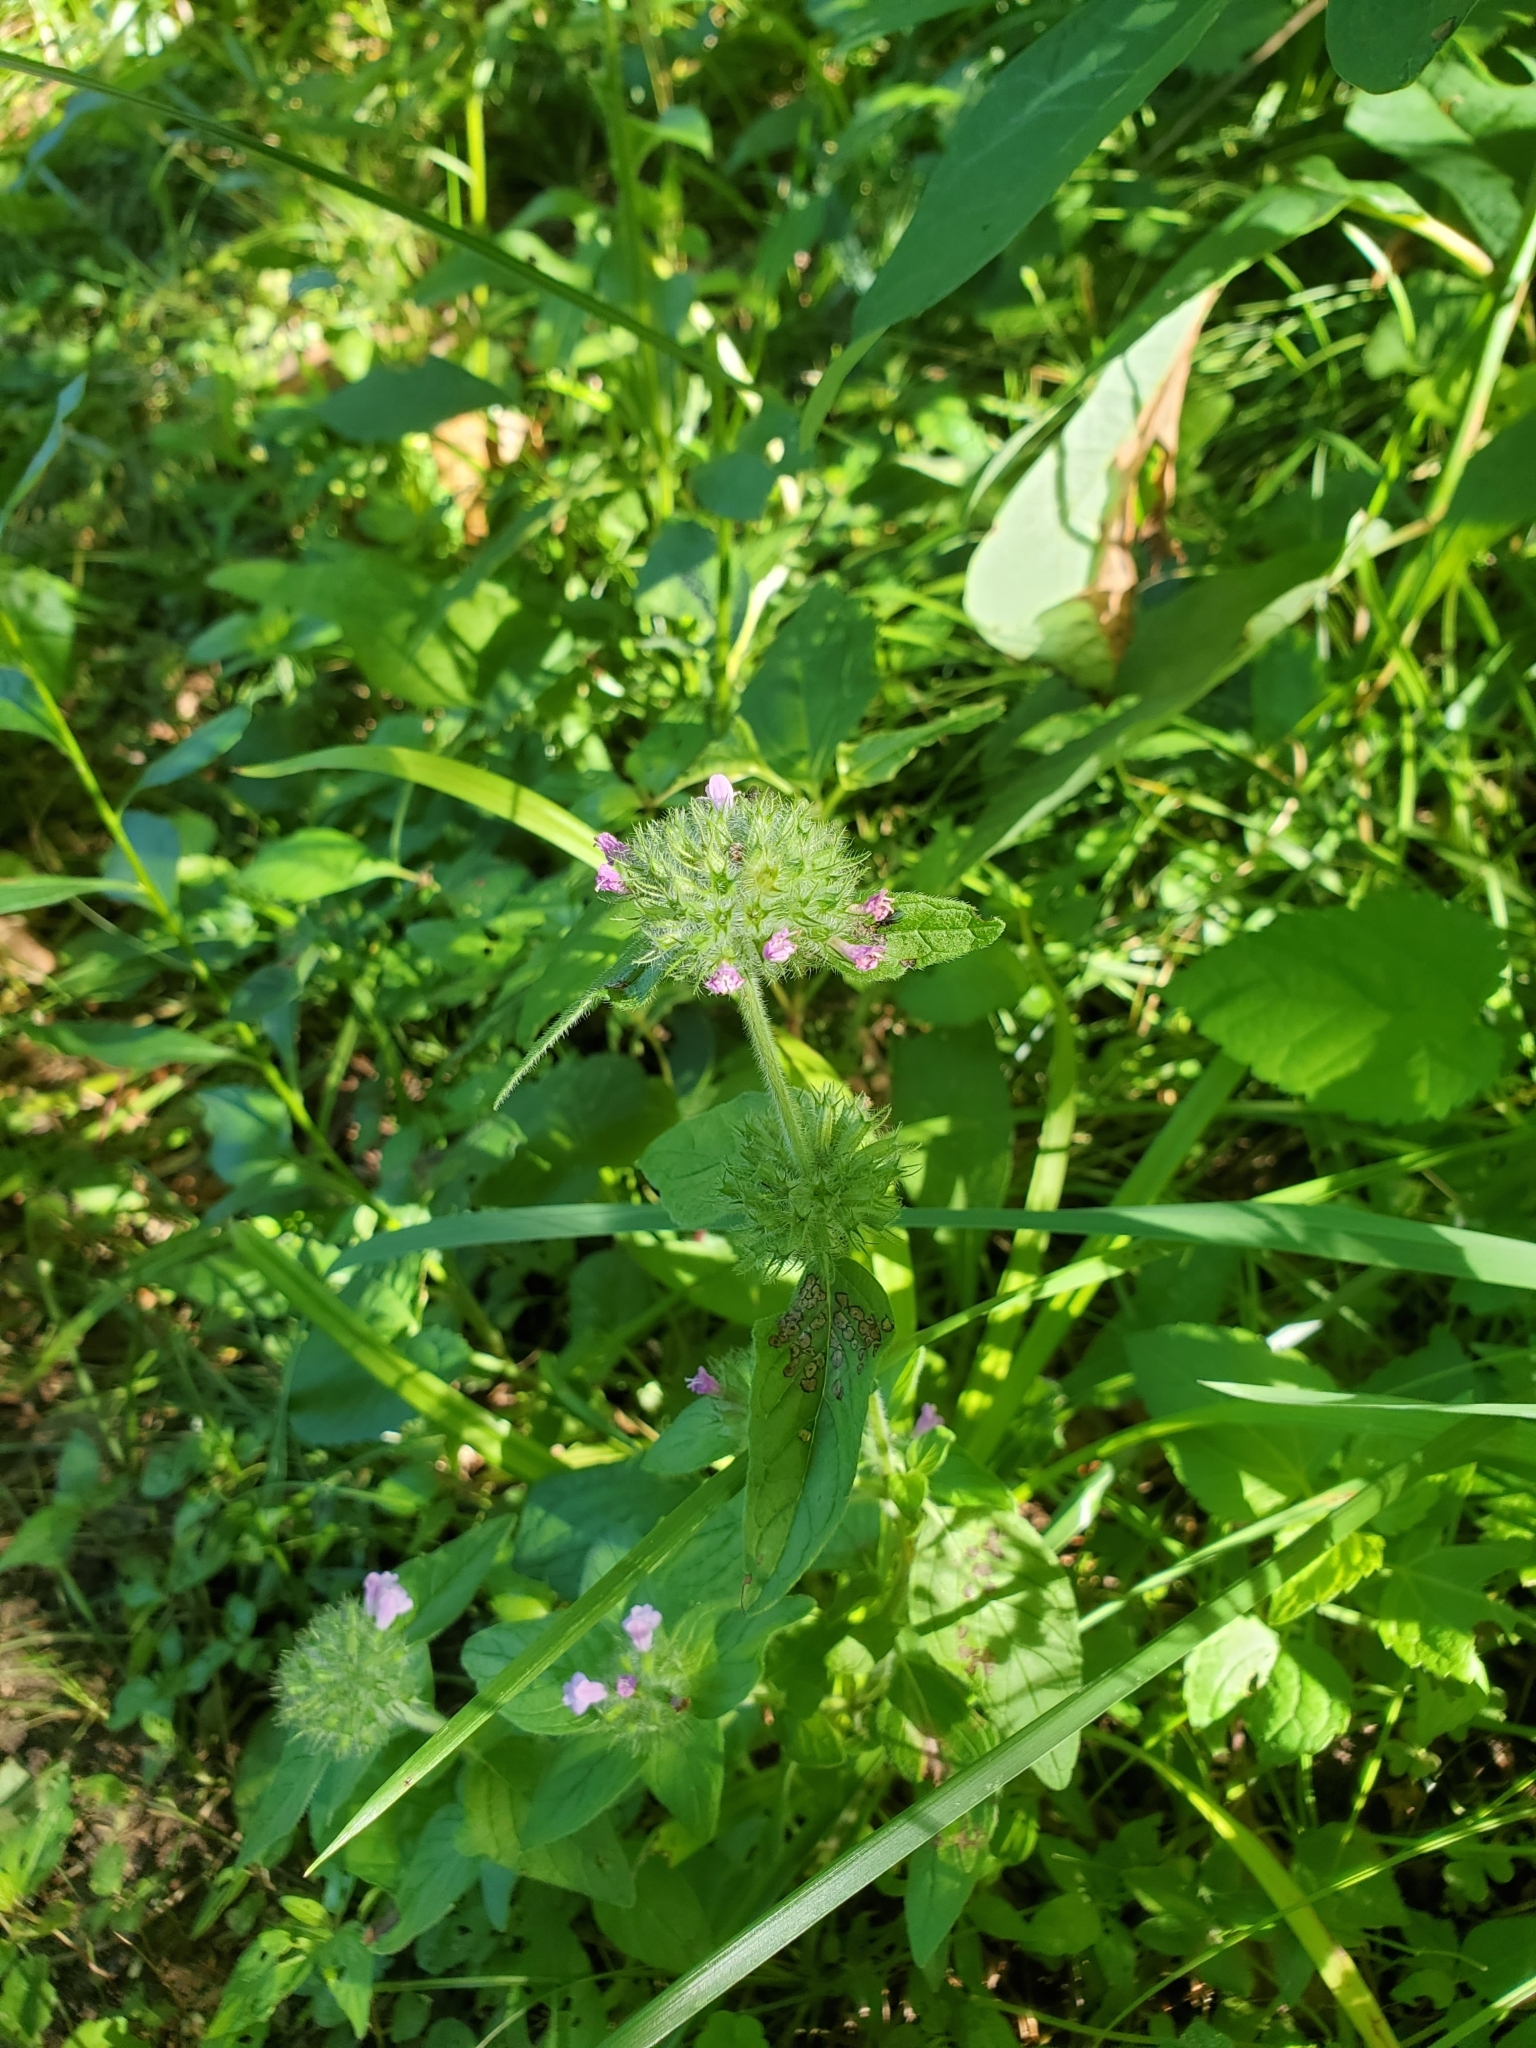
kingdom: Plantae
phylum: Tracheophyta
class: Magnoliopsida
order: Lamiales
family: Lamiaceae
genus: Clinopodium
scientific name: Clinopodium vulgare
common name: Wild basil
